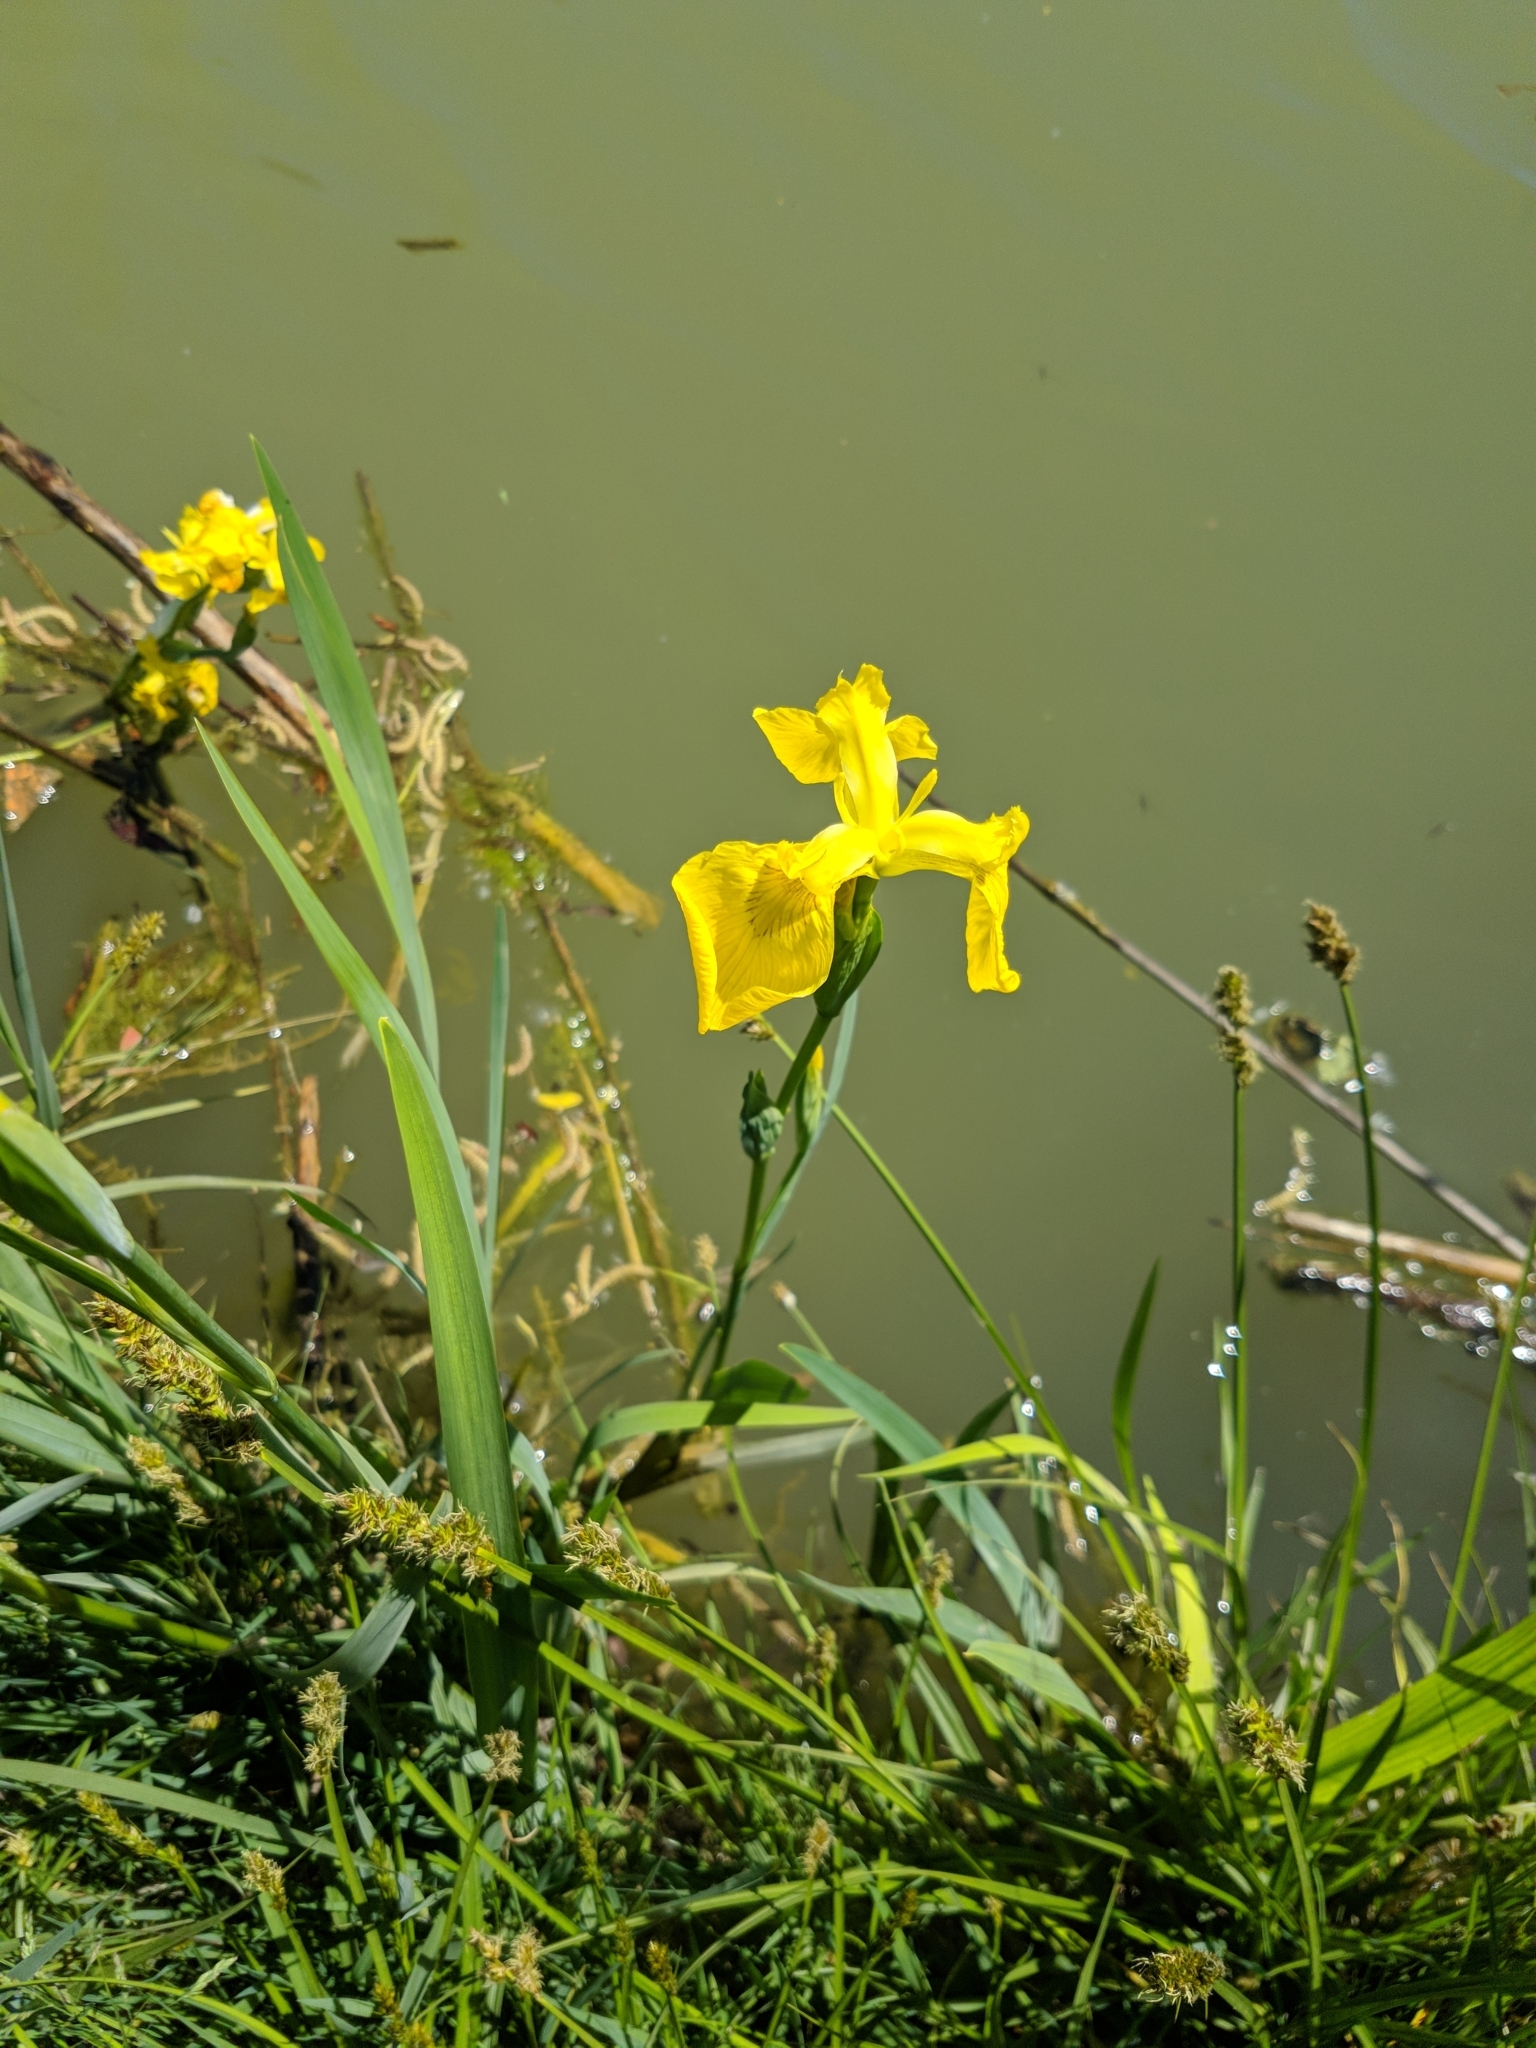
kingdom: Plantae
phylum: Tracheophyta
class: Liliopsida
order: Asparagales
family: Iridaceae
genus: Iris
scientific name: Iris pseudacorus
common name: Yellow flag
